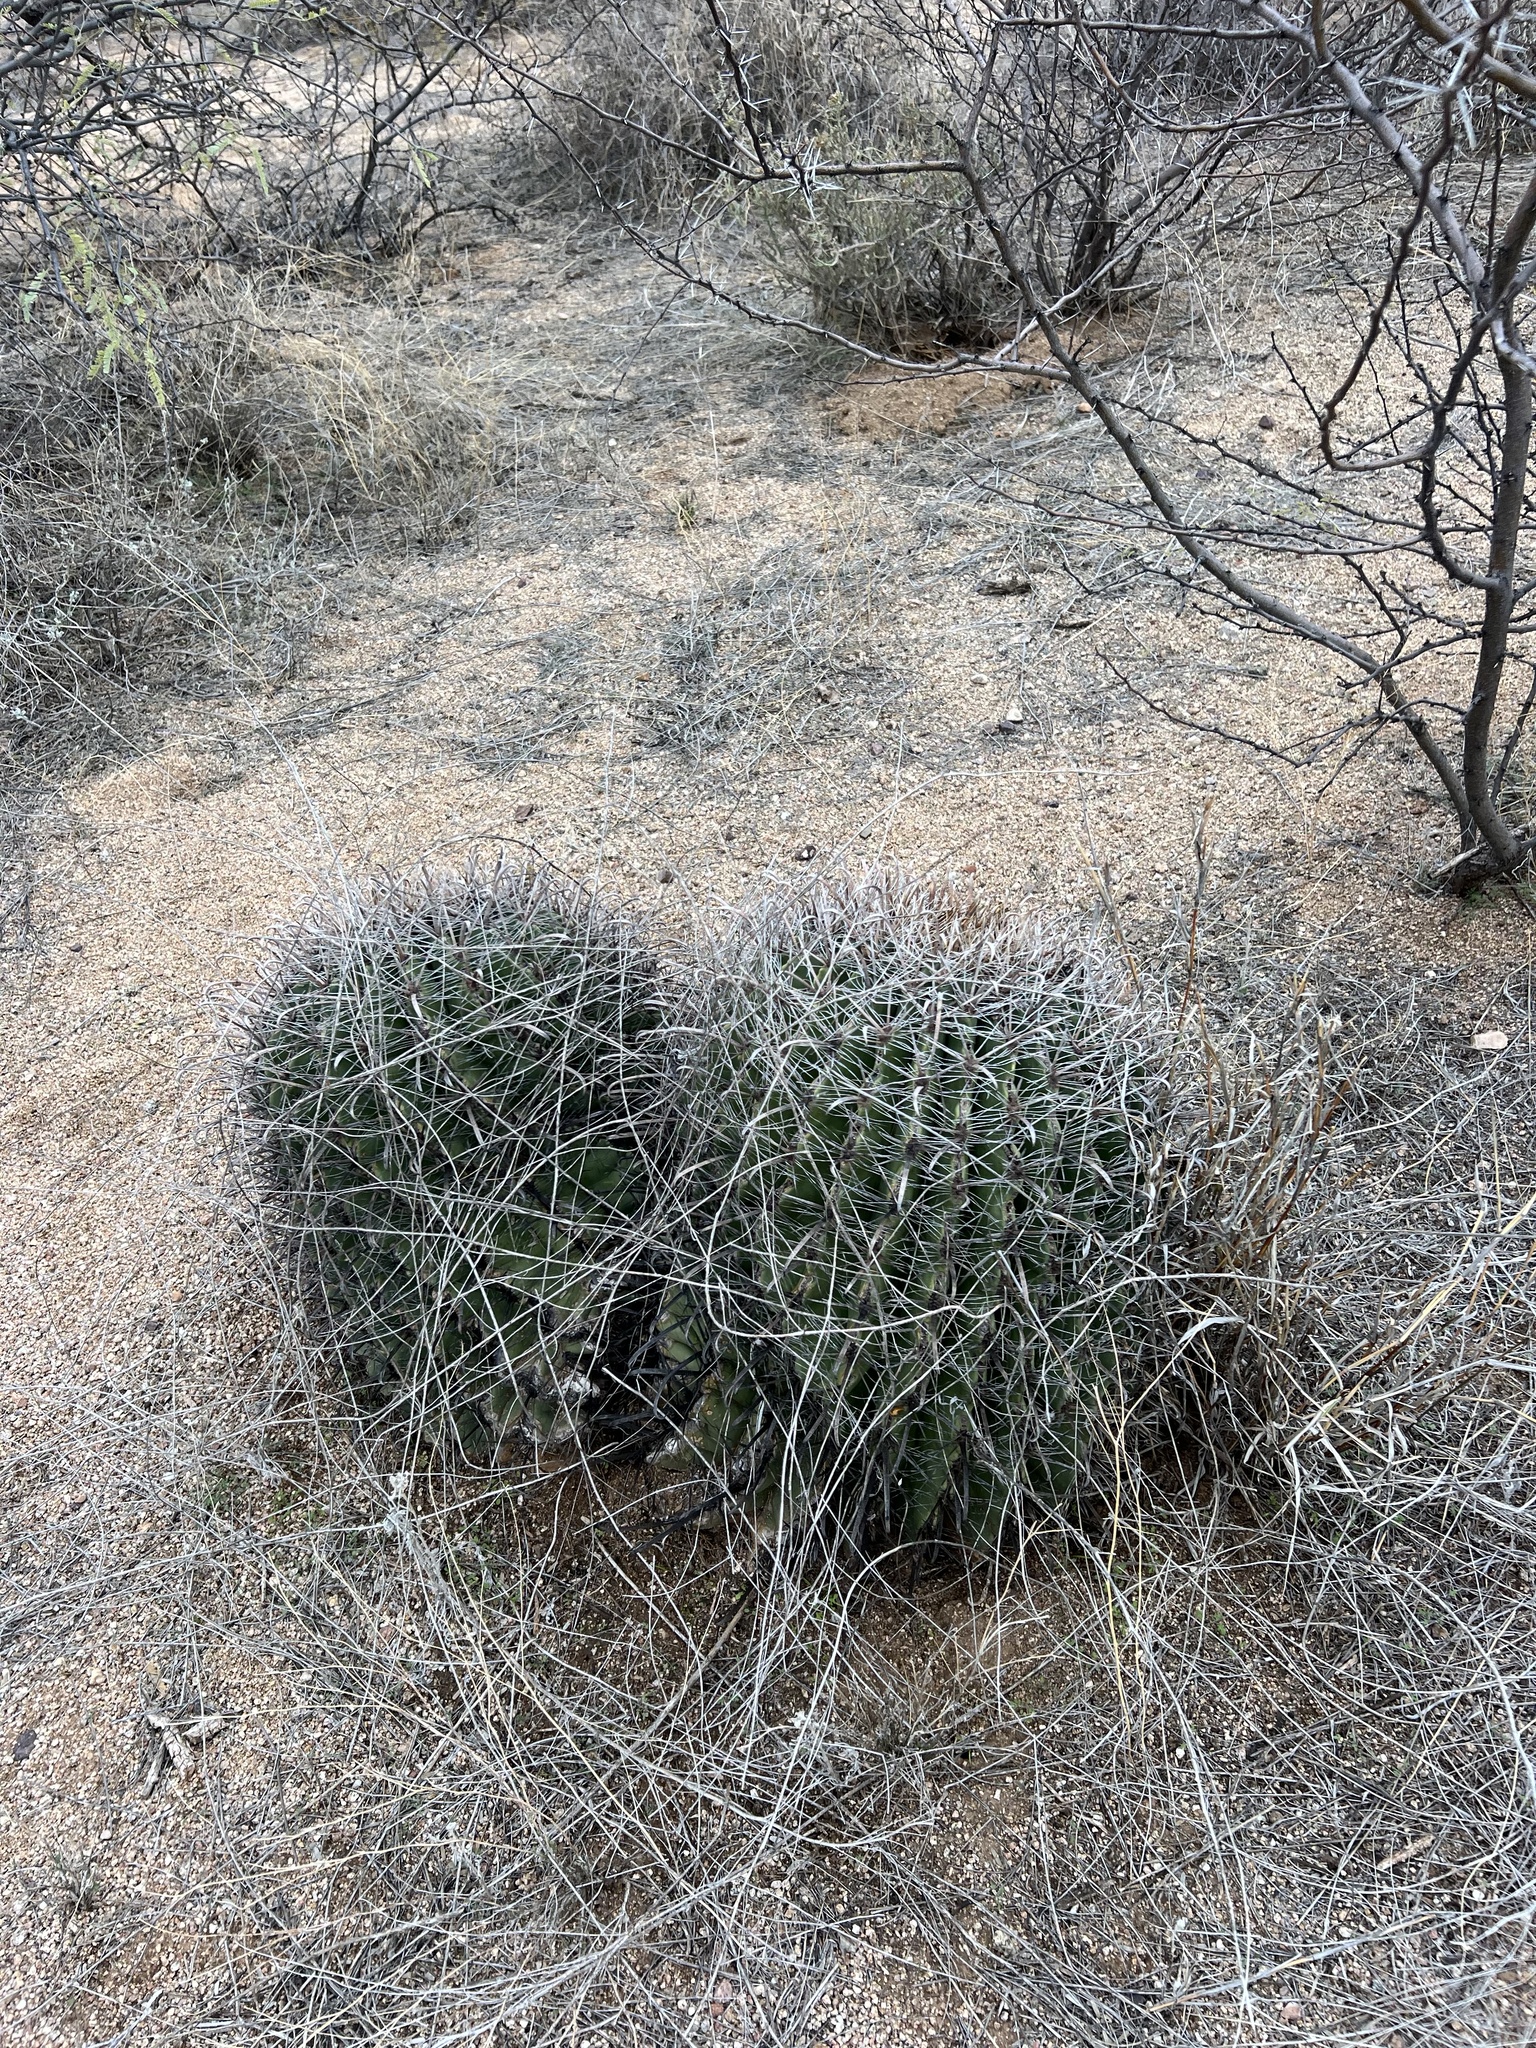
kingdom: Plantae
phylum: Tracheophyta
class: Magnoliopsida
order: Caryophyllales
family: Cactaceae
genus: Ferocactus
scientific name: Ferocactus wislizeni
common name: Candy barrel cactus
